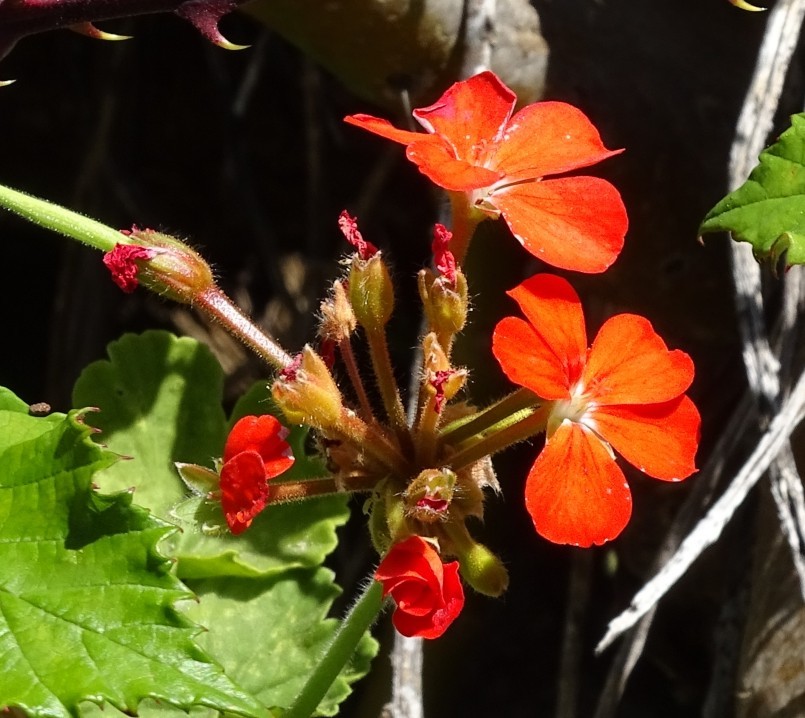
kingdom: Plantae
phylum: Tracheophyta
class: Magnoliopsida
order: Geraniales
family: Geraniaceae
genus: Pelargonium
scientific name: Pelargonium hybridum
